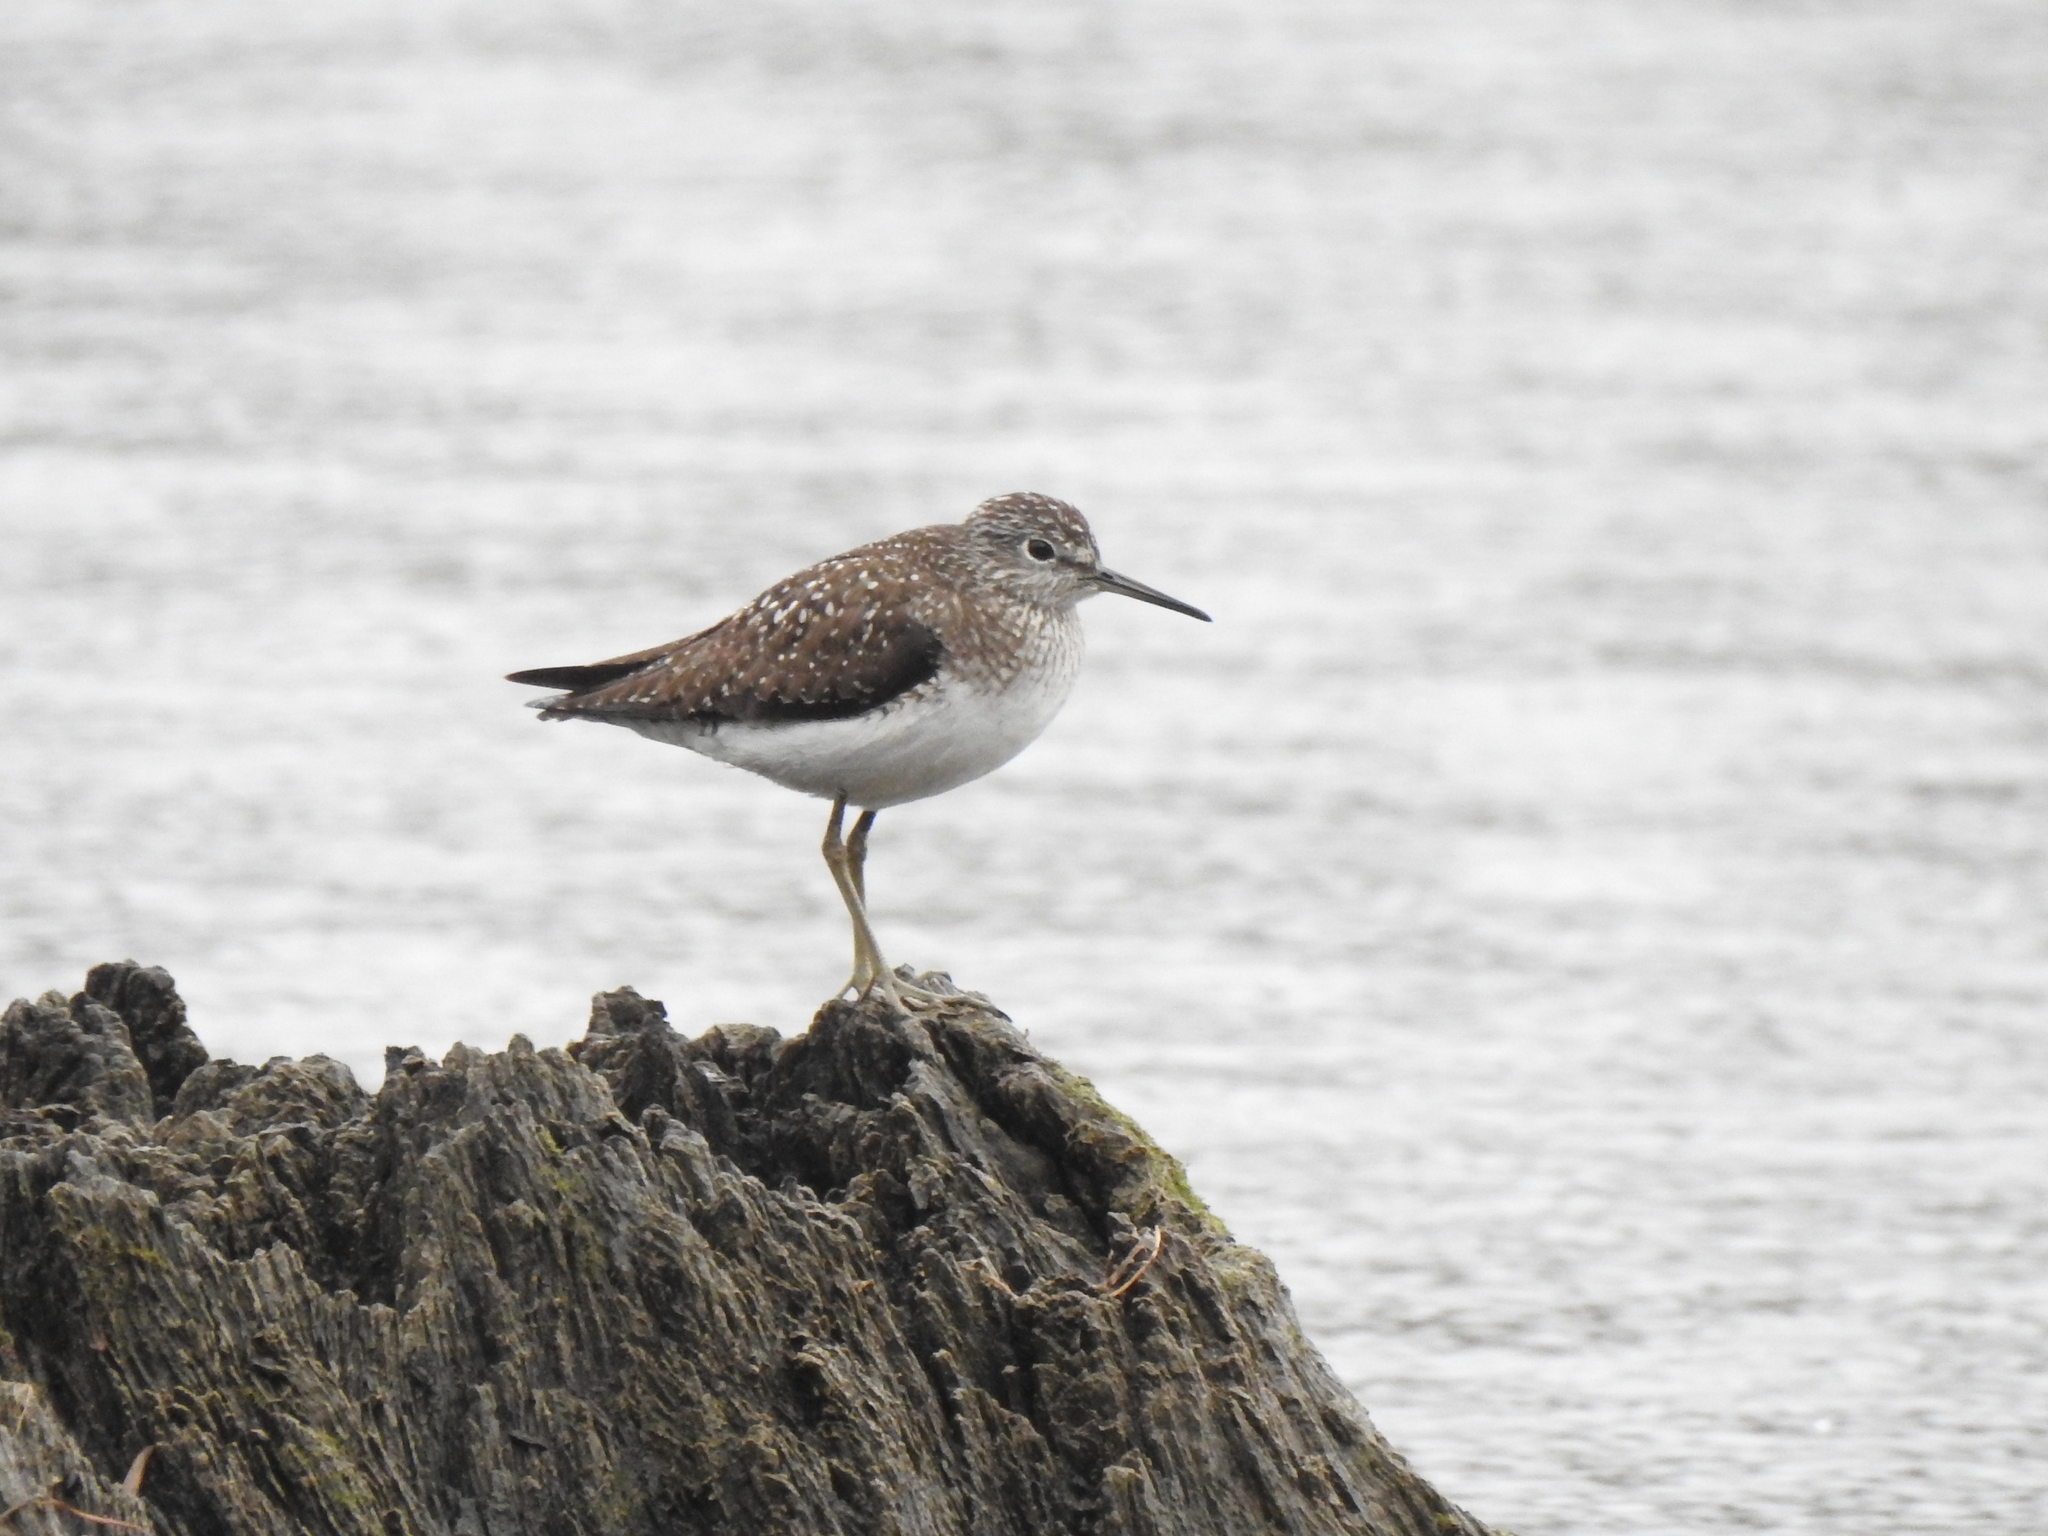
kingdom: Animalia
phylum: Chordata
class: Aves
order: Charadriiformes
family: Scolopacidae
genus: Tringa
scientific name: Tringa solitaria
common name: Solitary sandpiper
